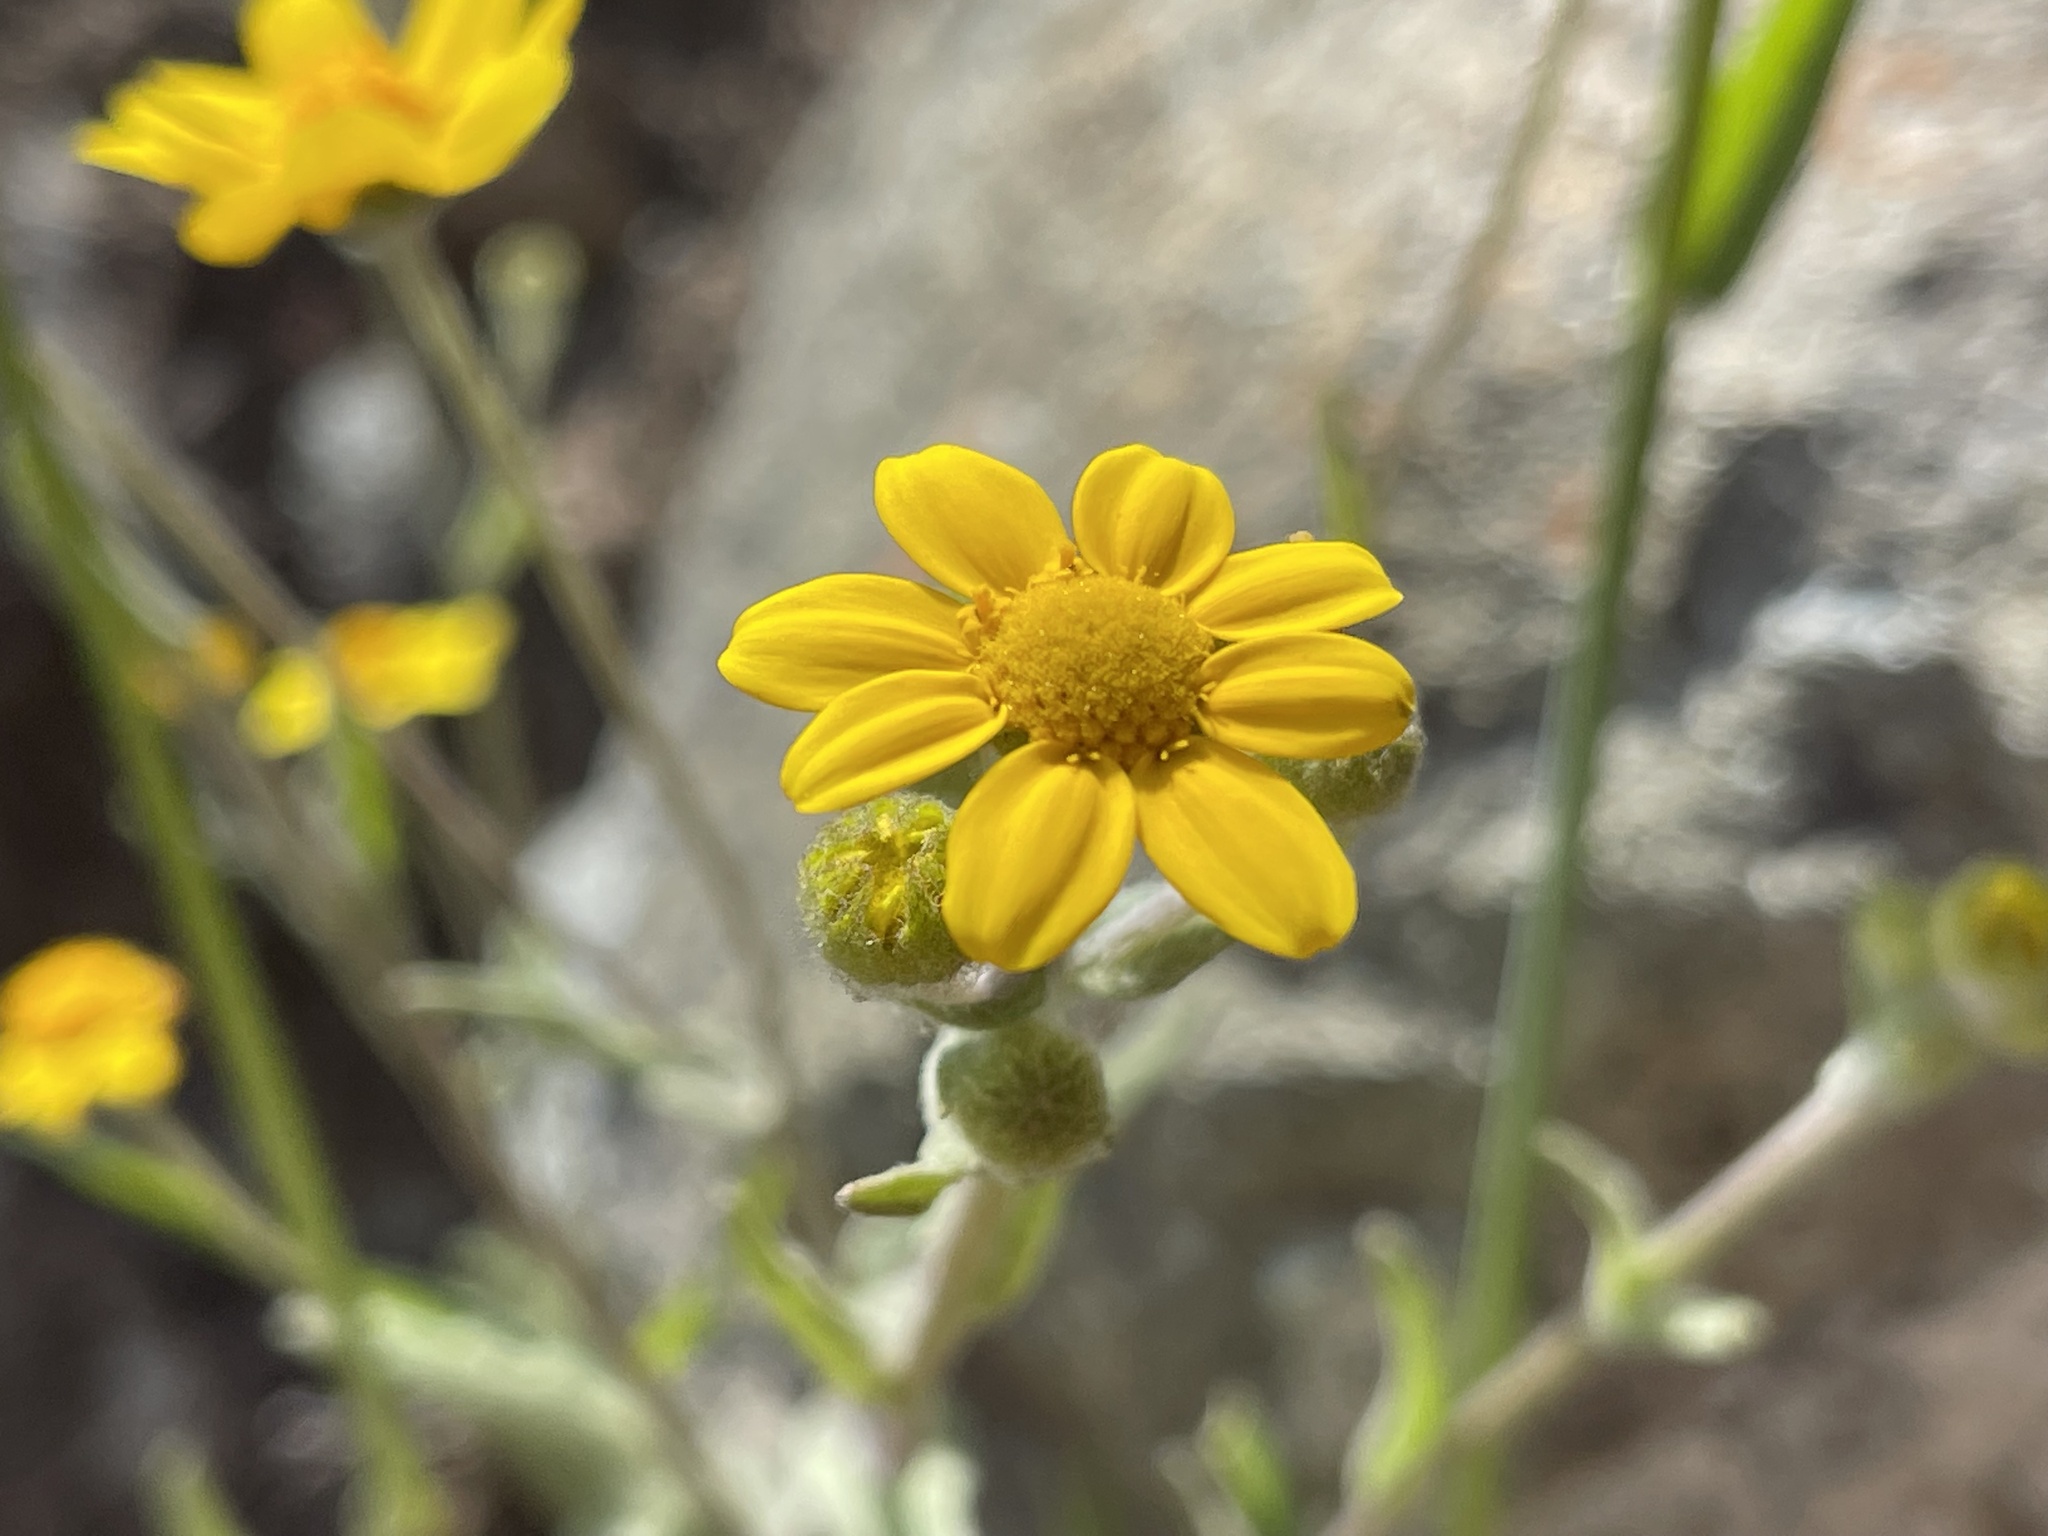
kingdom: Plantae
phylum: Tracheophyta
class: Magnoliopsida
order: Asterales
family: Asteraceae
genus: Monolopia
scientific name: Monolopia gracilens
